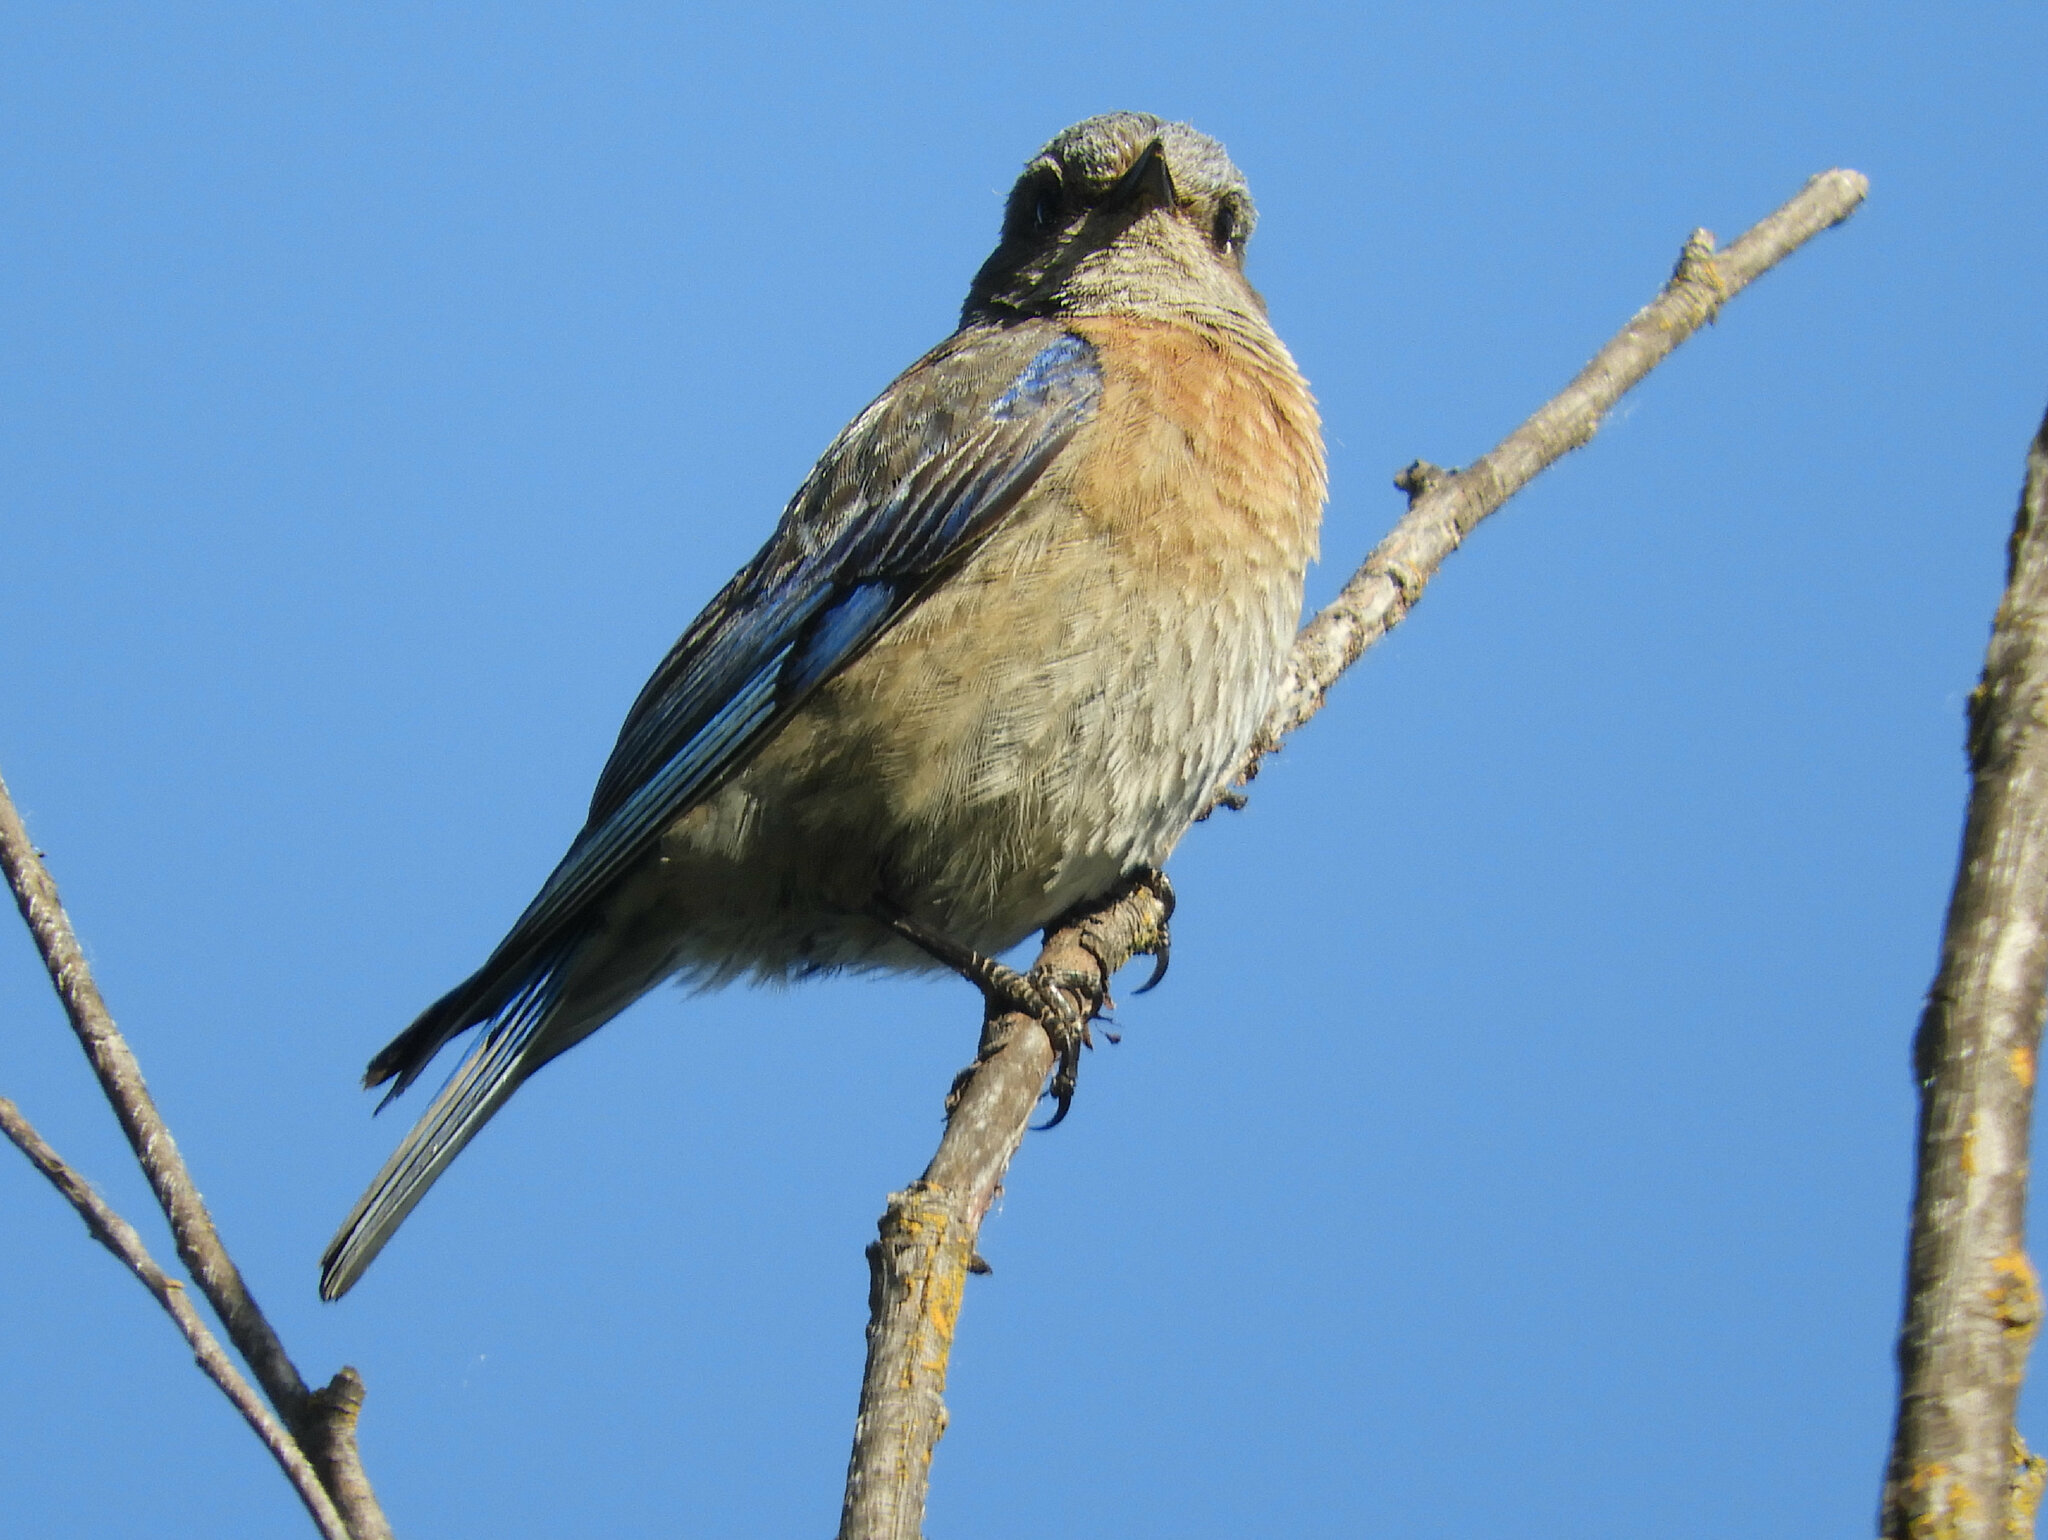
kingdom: Animalia
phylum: Chordata
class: Aves
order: Passeriformes
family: Turdidae
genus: Sialia
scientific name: Sialia mexicana
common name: Western bluebird
